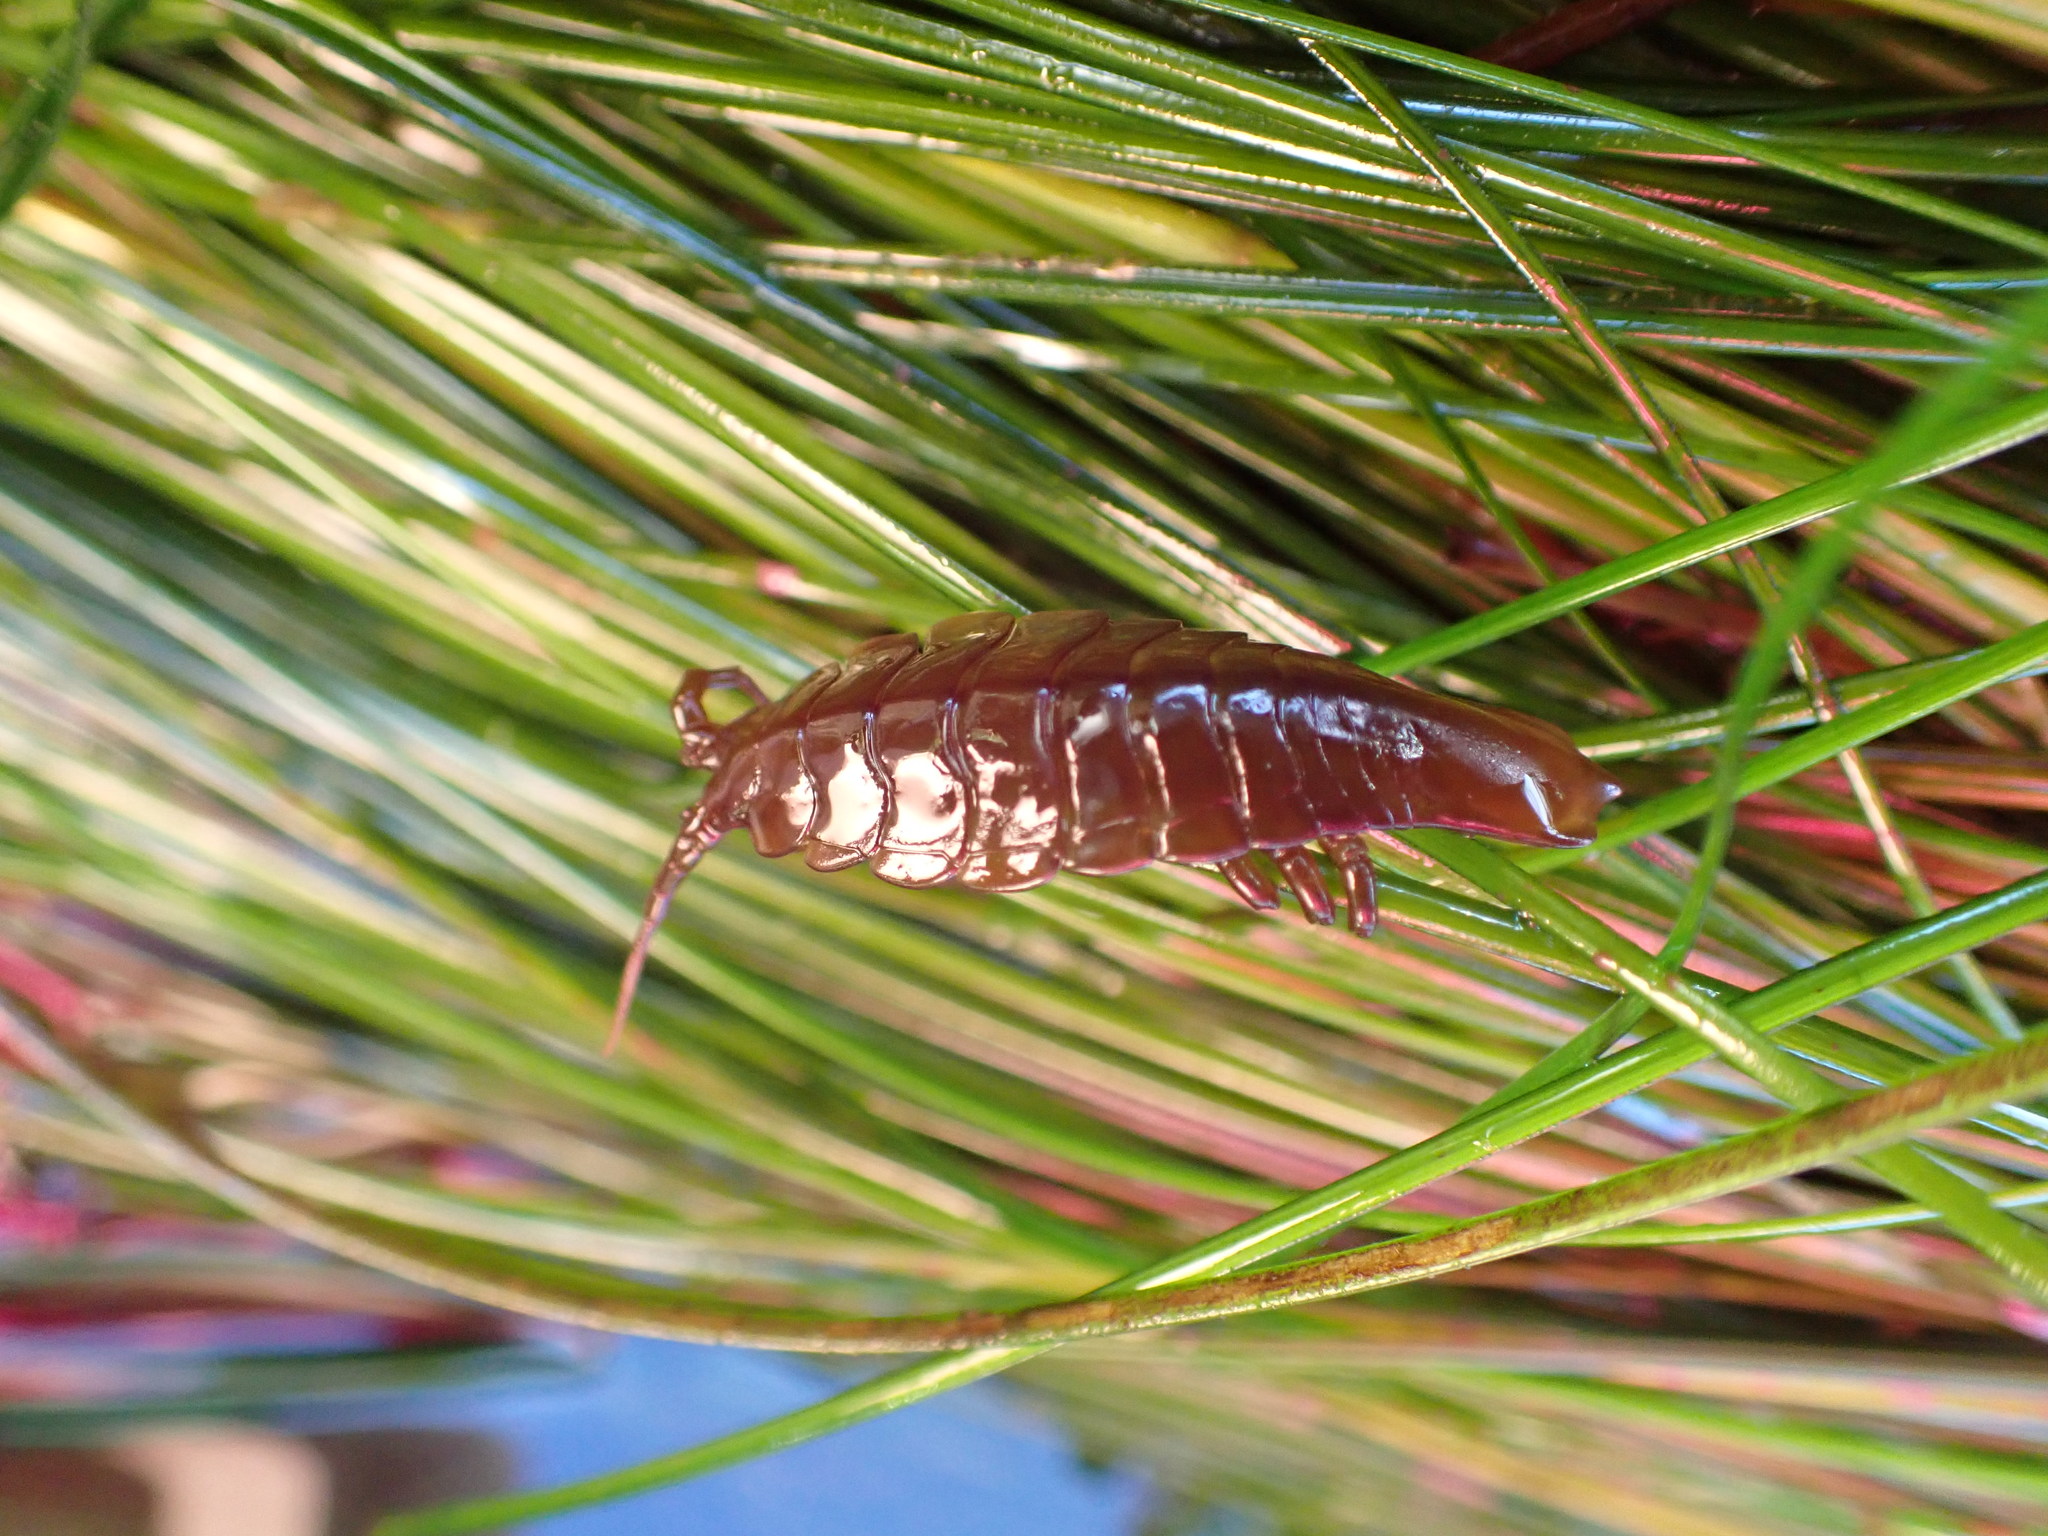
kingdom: Animalia
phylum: Arthropoda
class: Malacostraca
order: Isopoda
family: Idoteidae
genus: Pentidotea
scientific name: Pentidotea stenops
